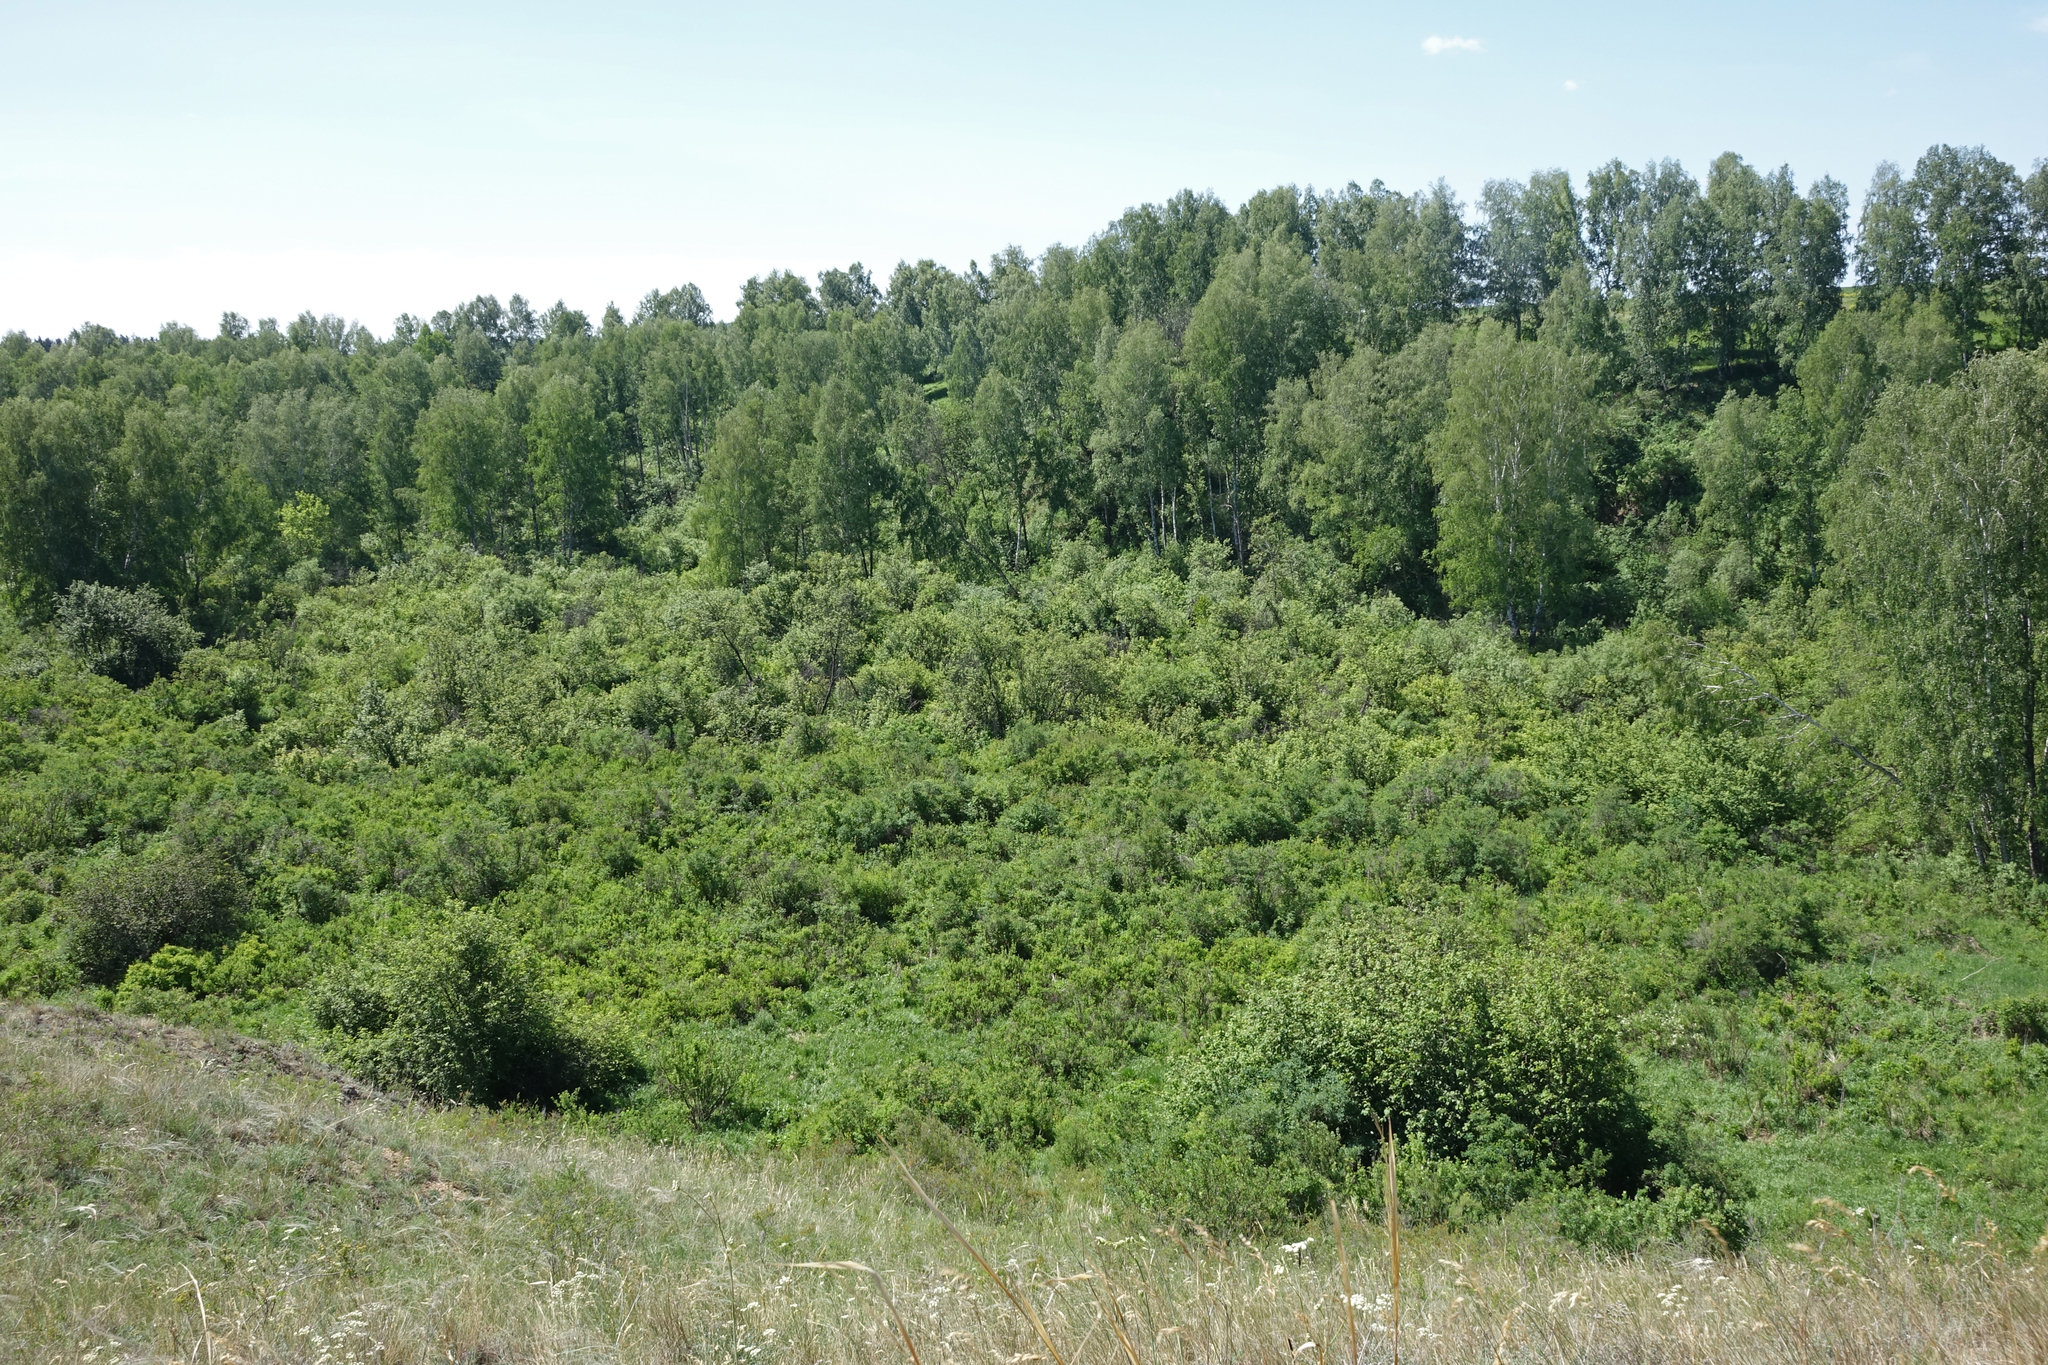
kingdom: Plantae
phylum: Tracheophyta
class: Magnoliopsida
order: Fagales
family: Betulaceae
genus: Betula
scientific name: Betula pendula
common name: Silver birch
